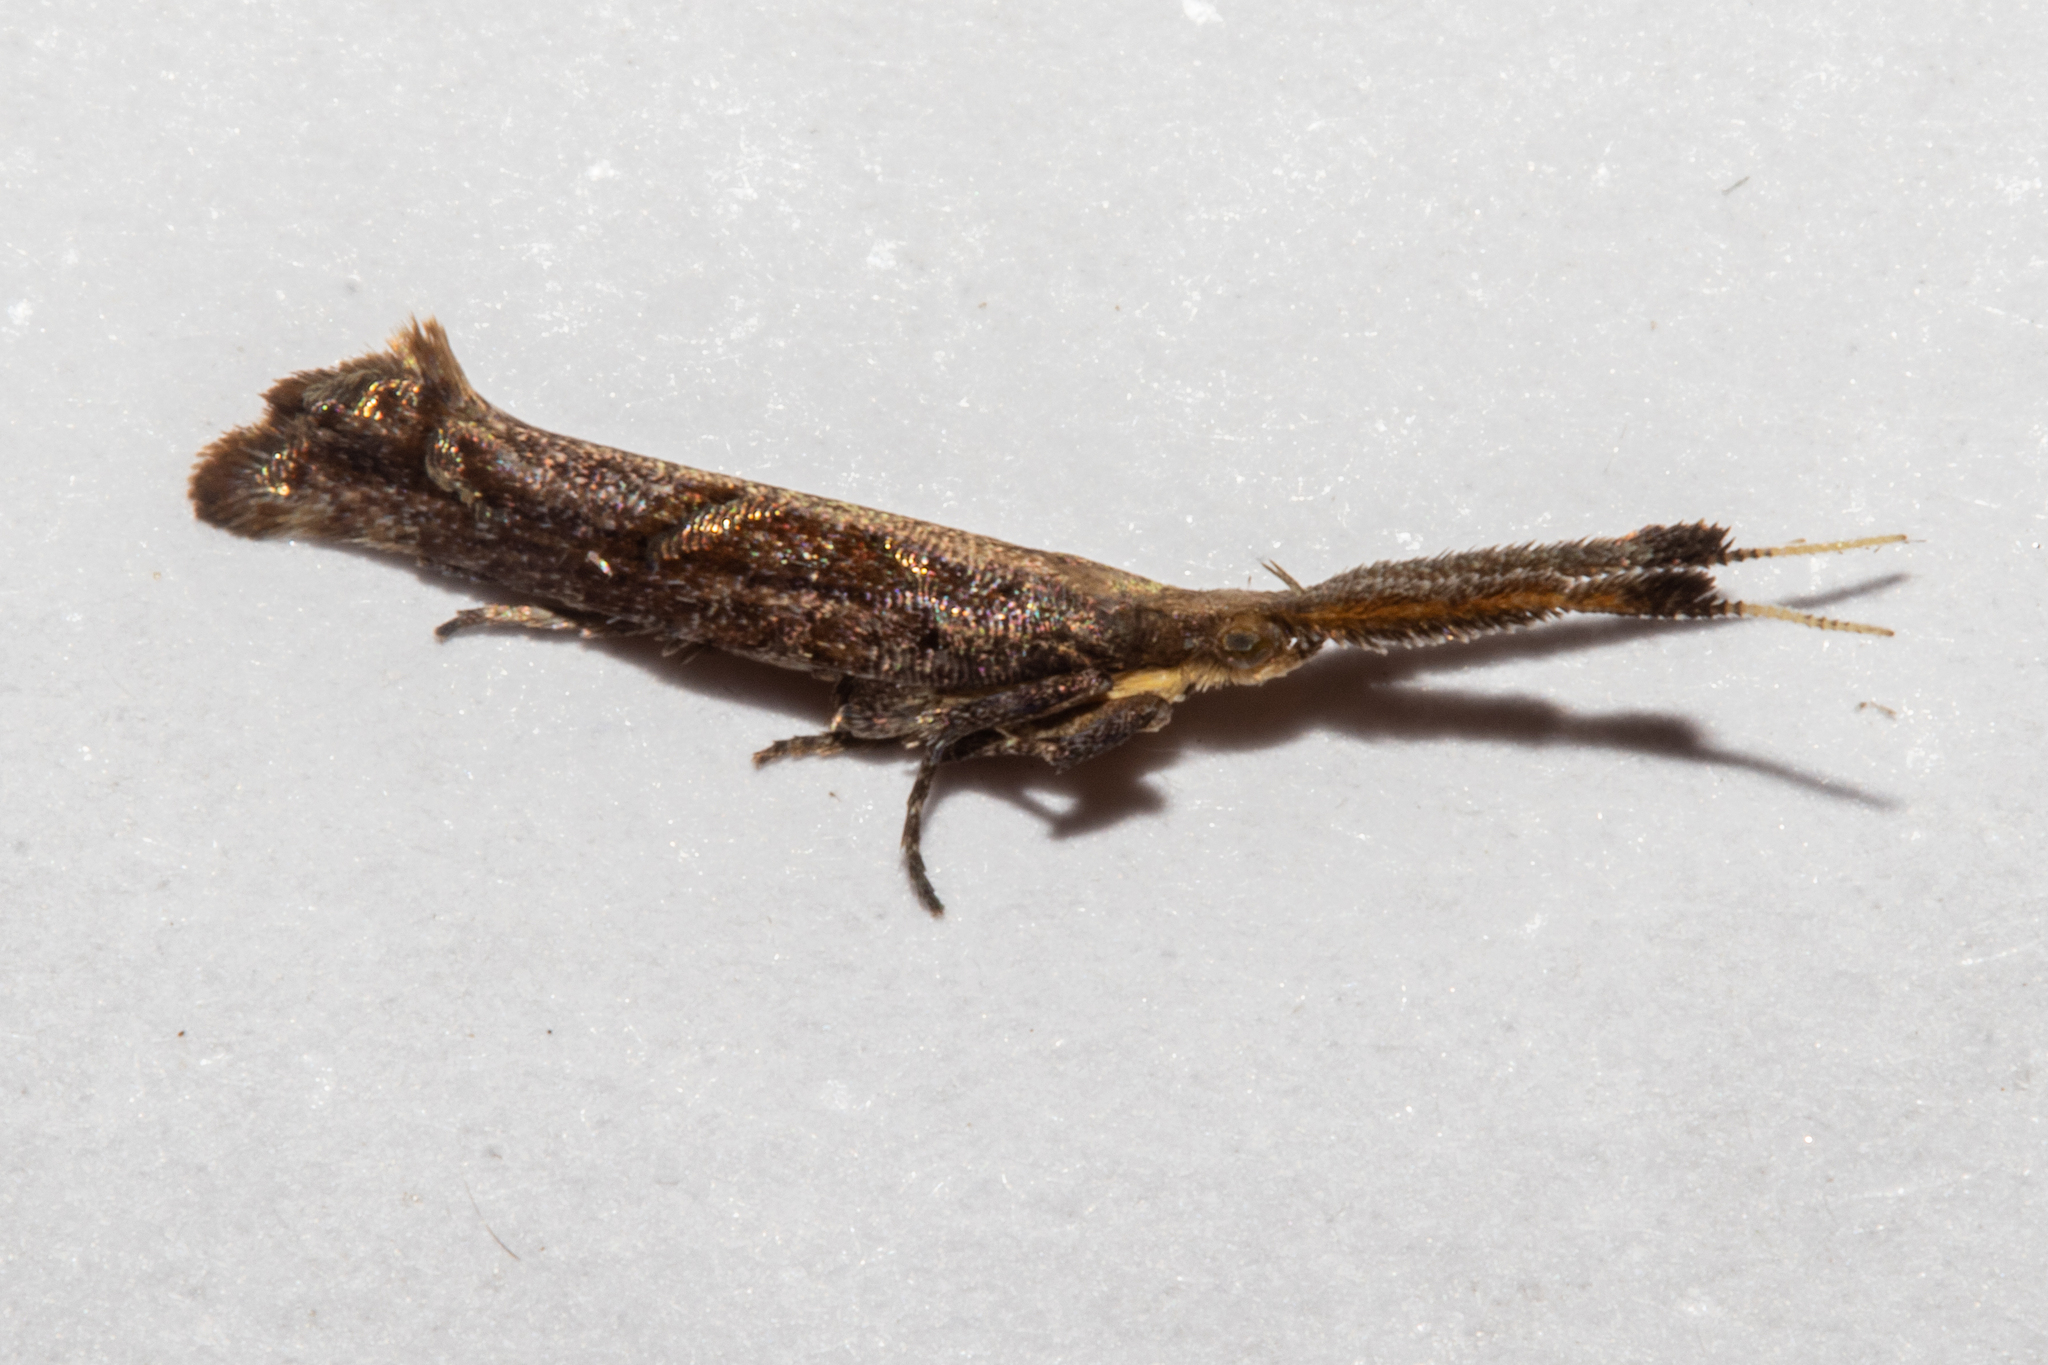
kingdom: Animalia
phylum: Arthropoda
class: Insecta
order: Lepidoptera
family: Plutellidae
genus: Protosynaema
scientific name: Protosynaema steropucha
